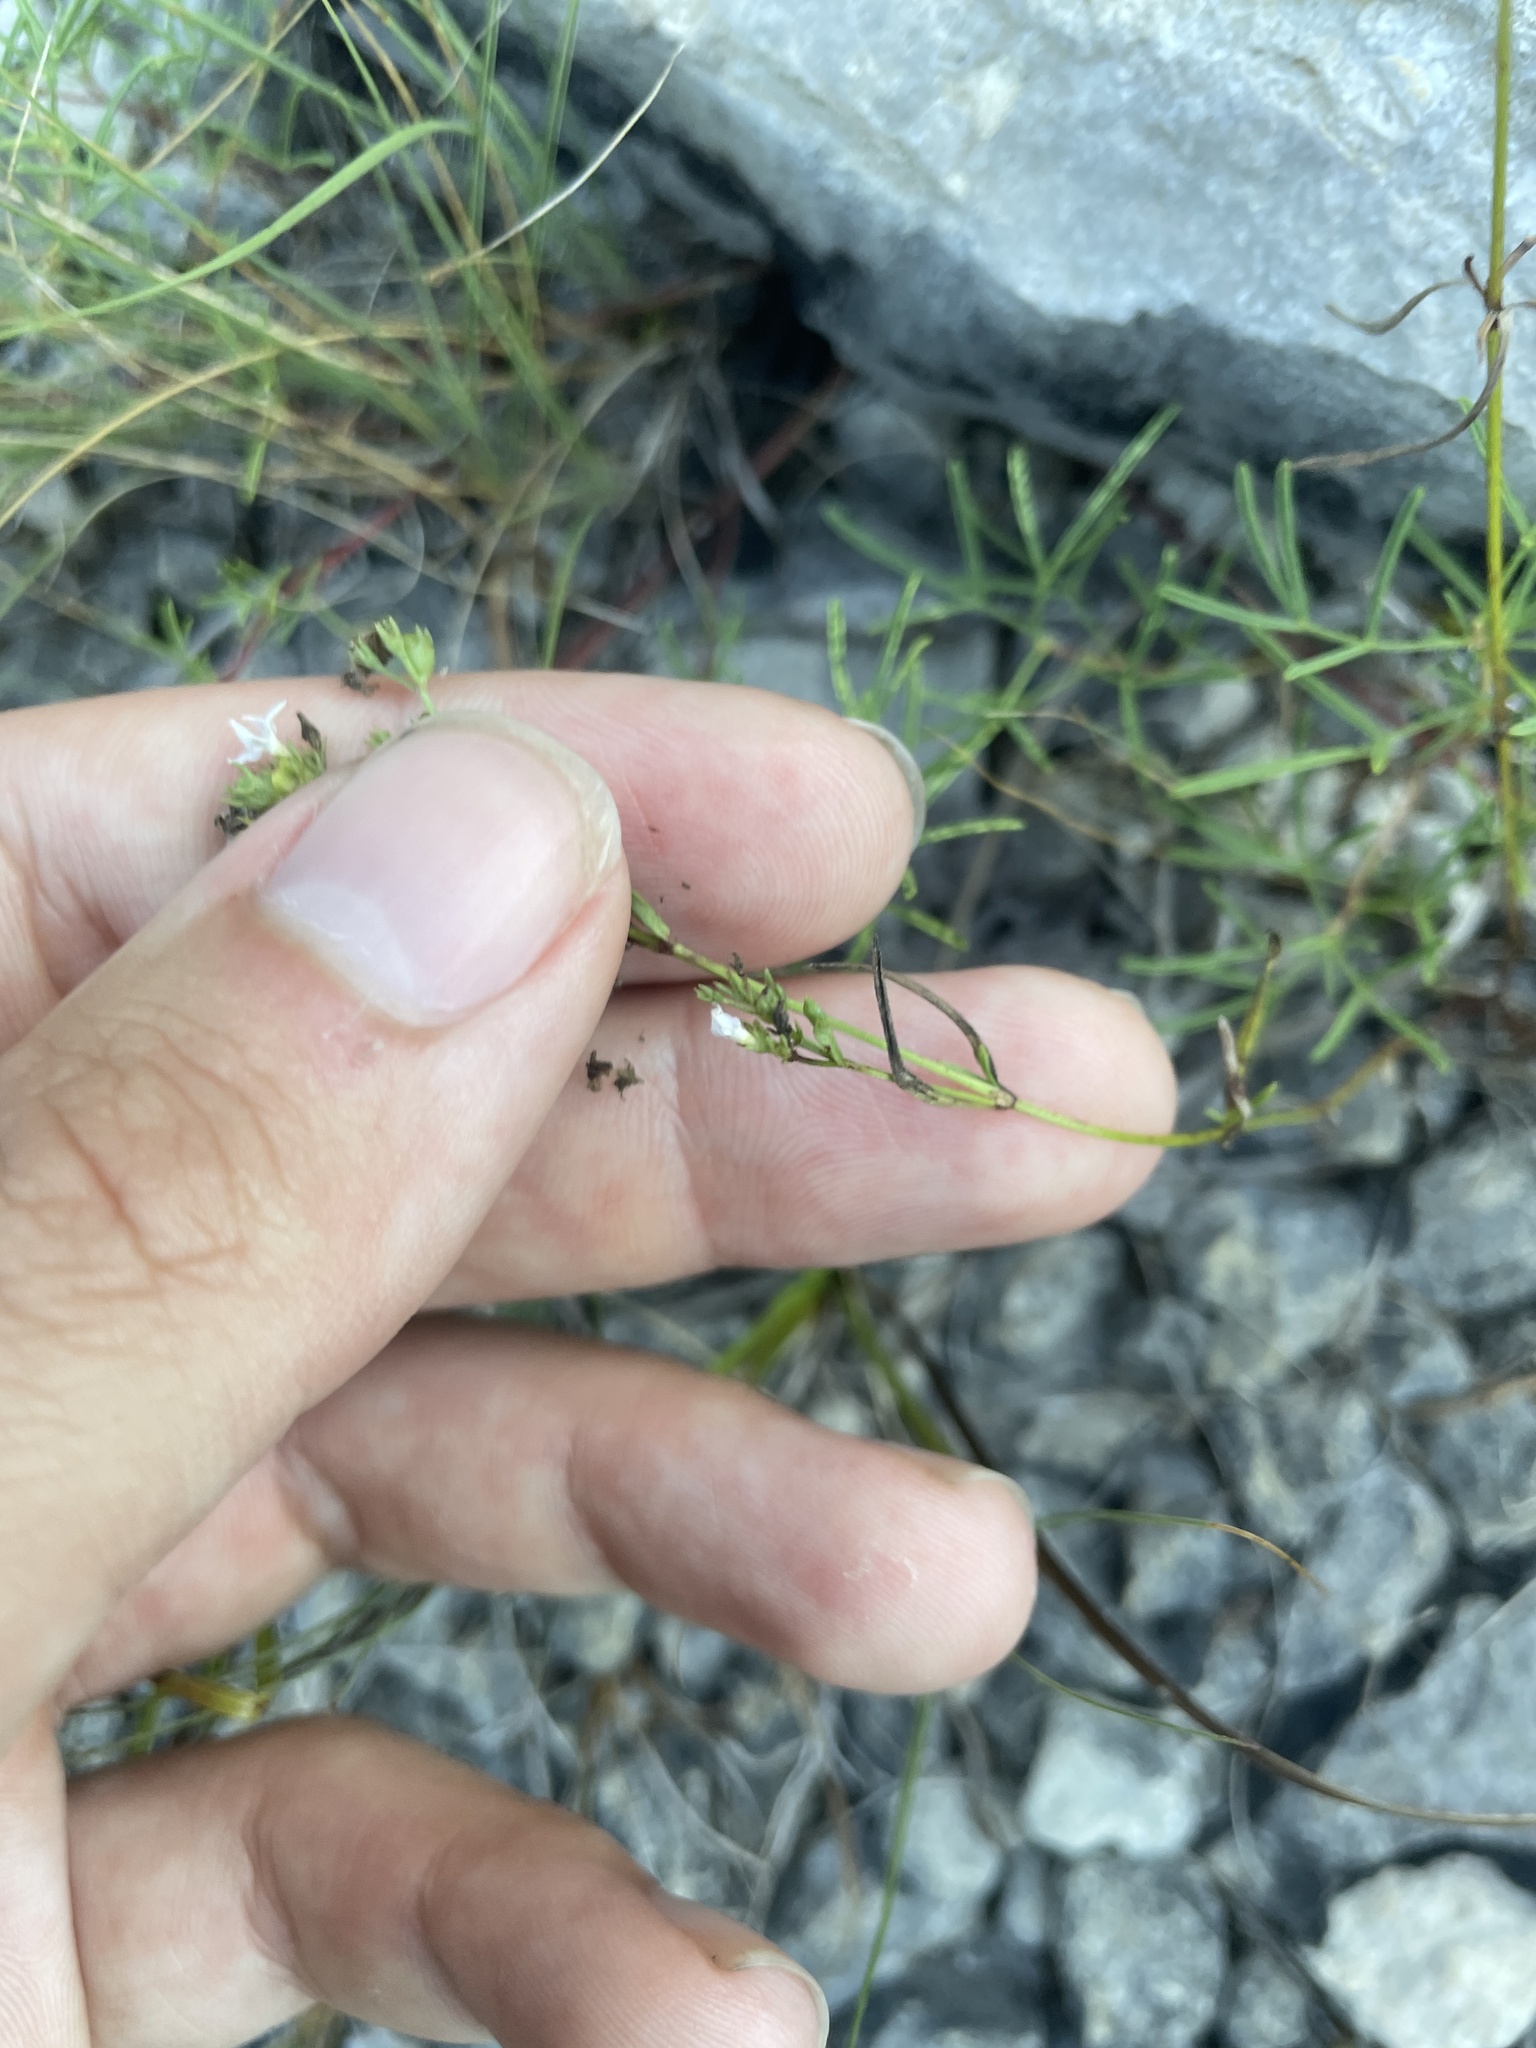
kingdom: Plantae
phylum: Tracheophyta
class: Magnoliopsida
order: Gentianales
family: Rubiaceae
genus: Stenaria
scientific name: Stenaria nigricans
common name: Diamondflowers
